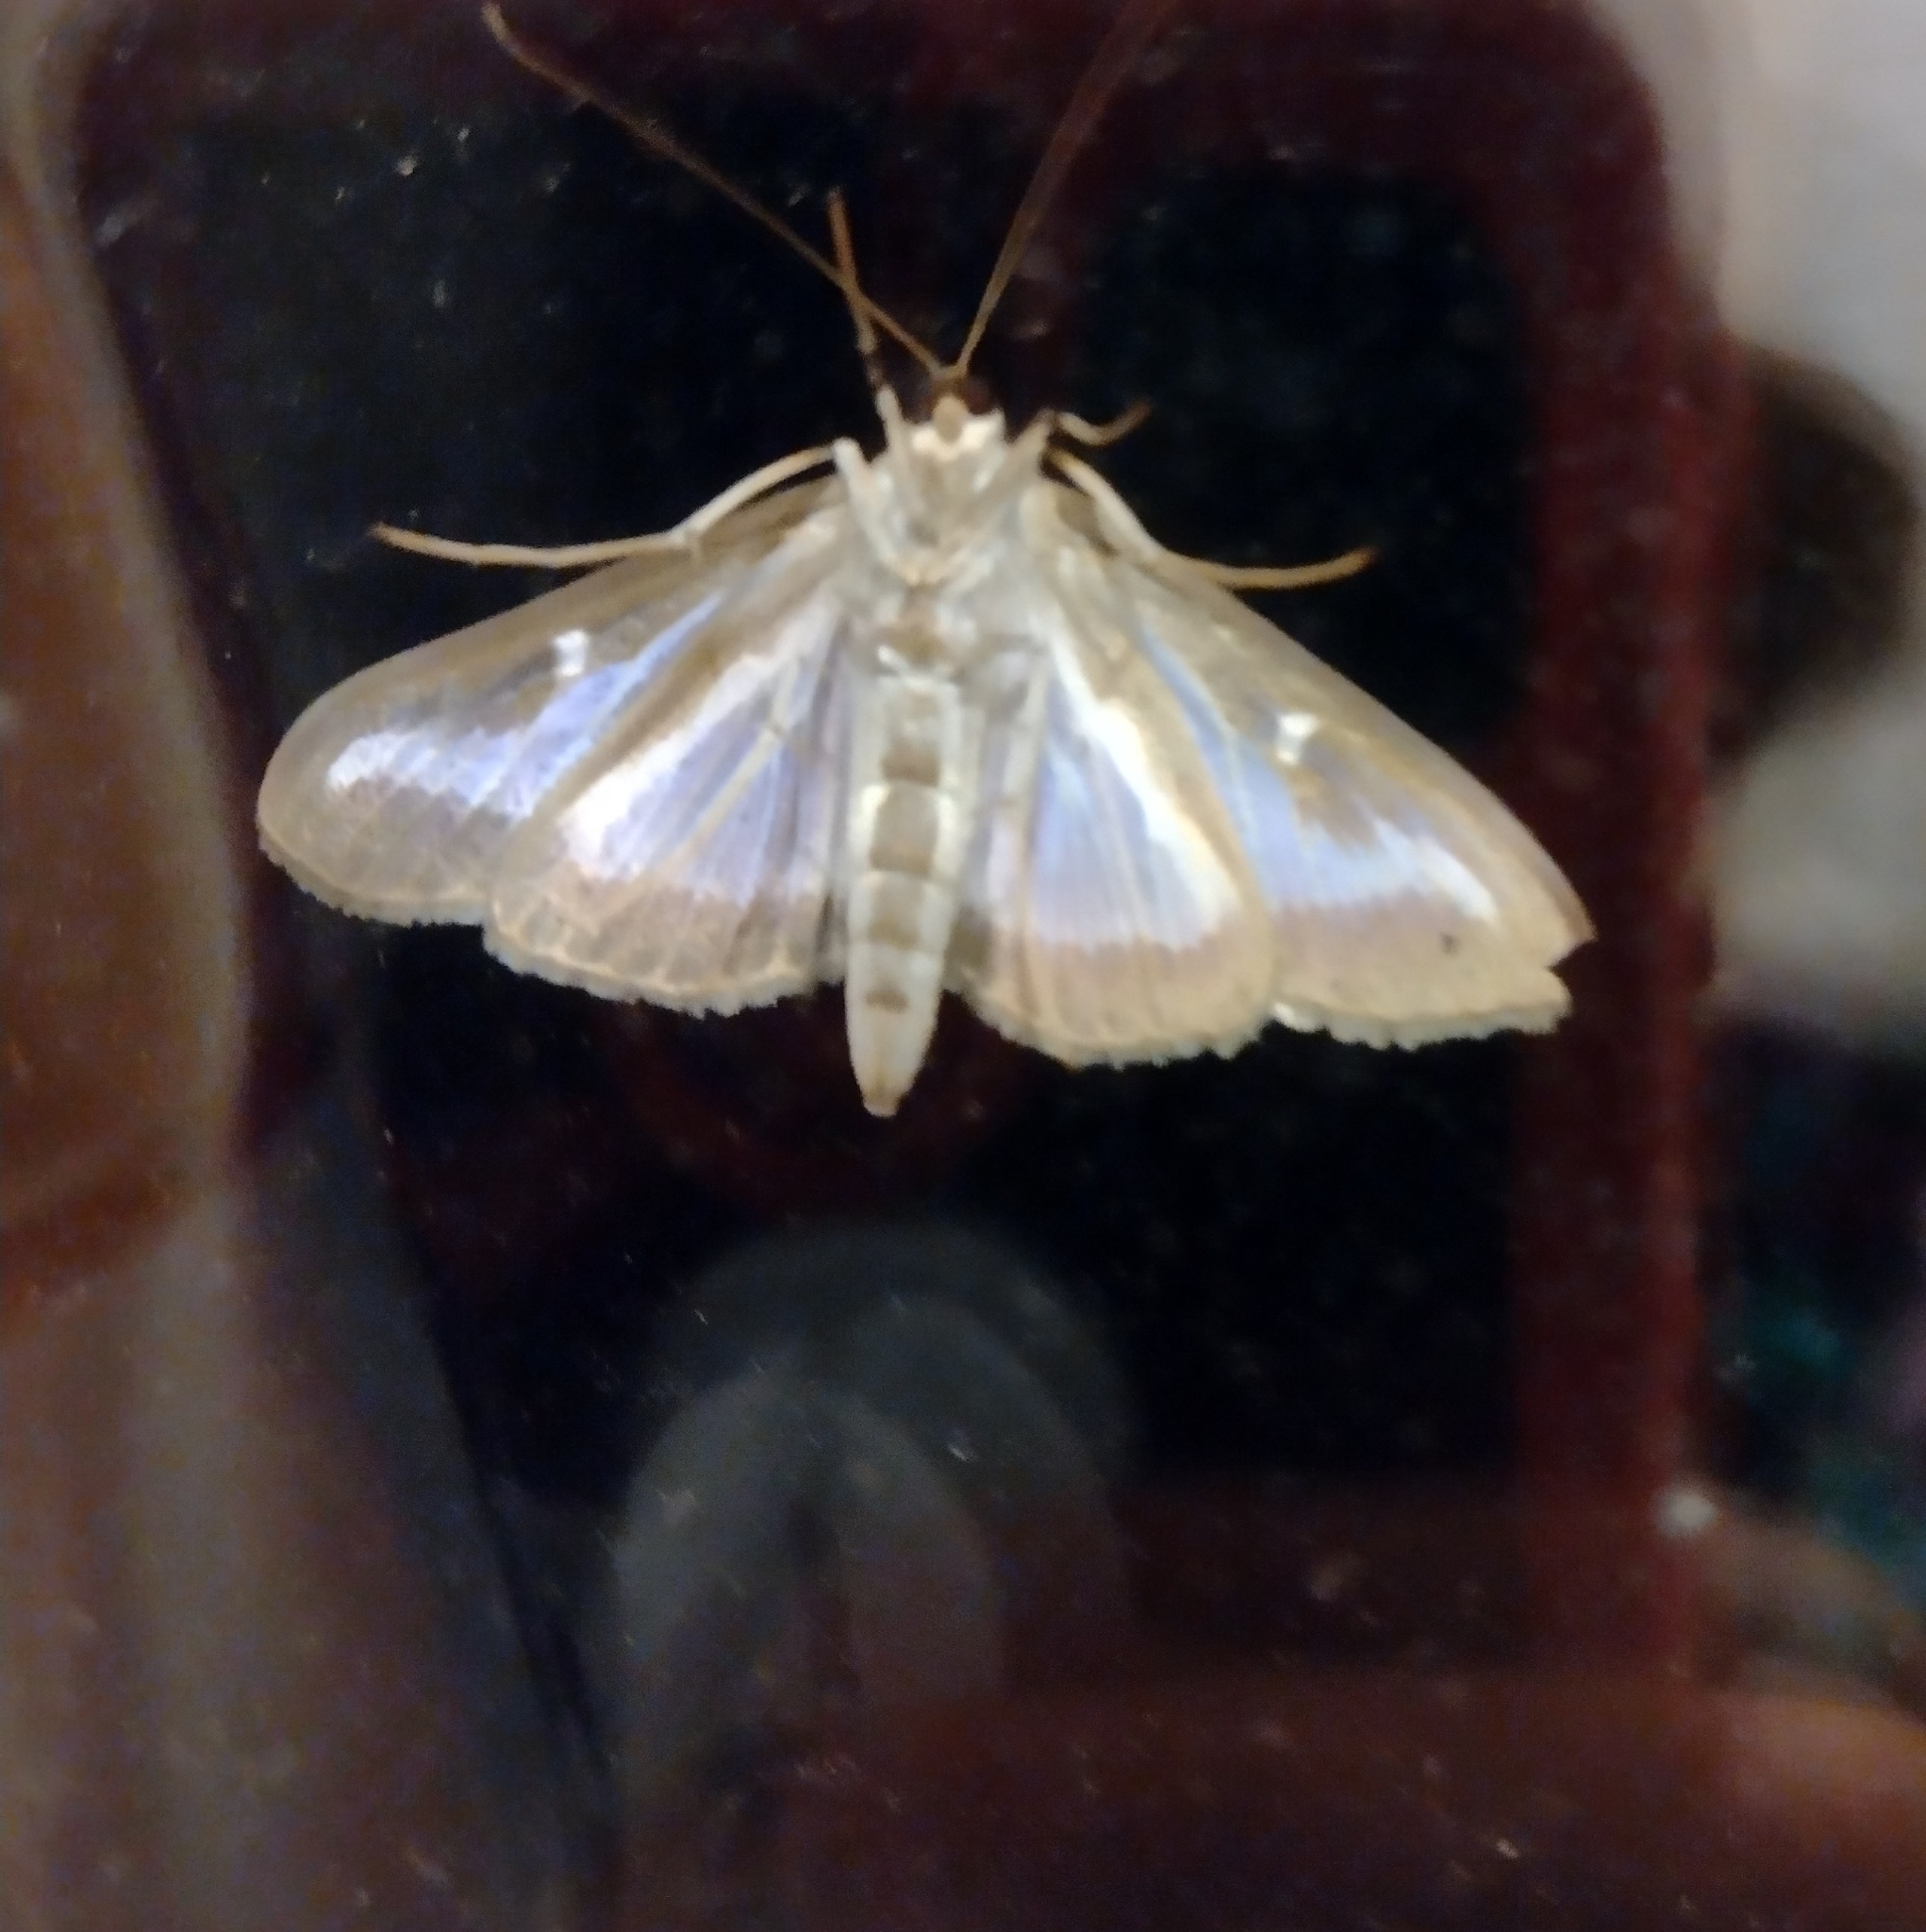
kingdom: Animalia
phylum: Arthropoda
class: Insecta
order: Lepidoptera
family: Crambidae
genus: Cydalima
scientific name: Cydalima perspectalis
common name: Box tree moth
